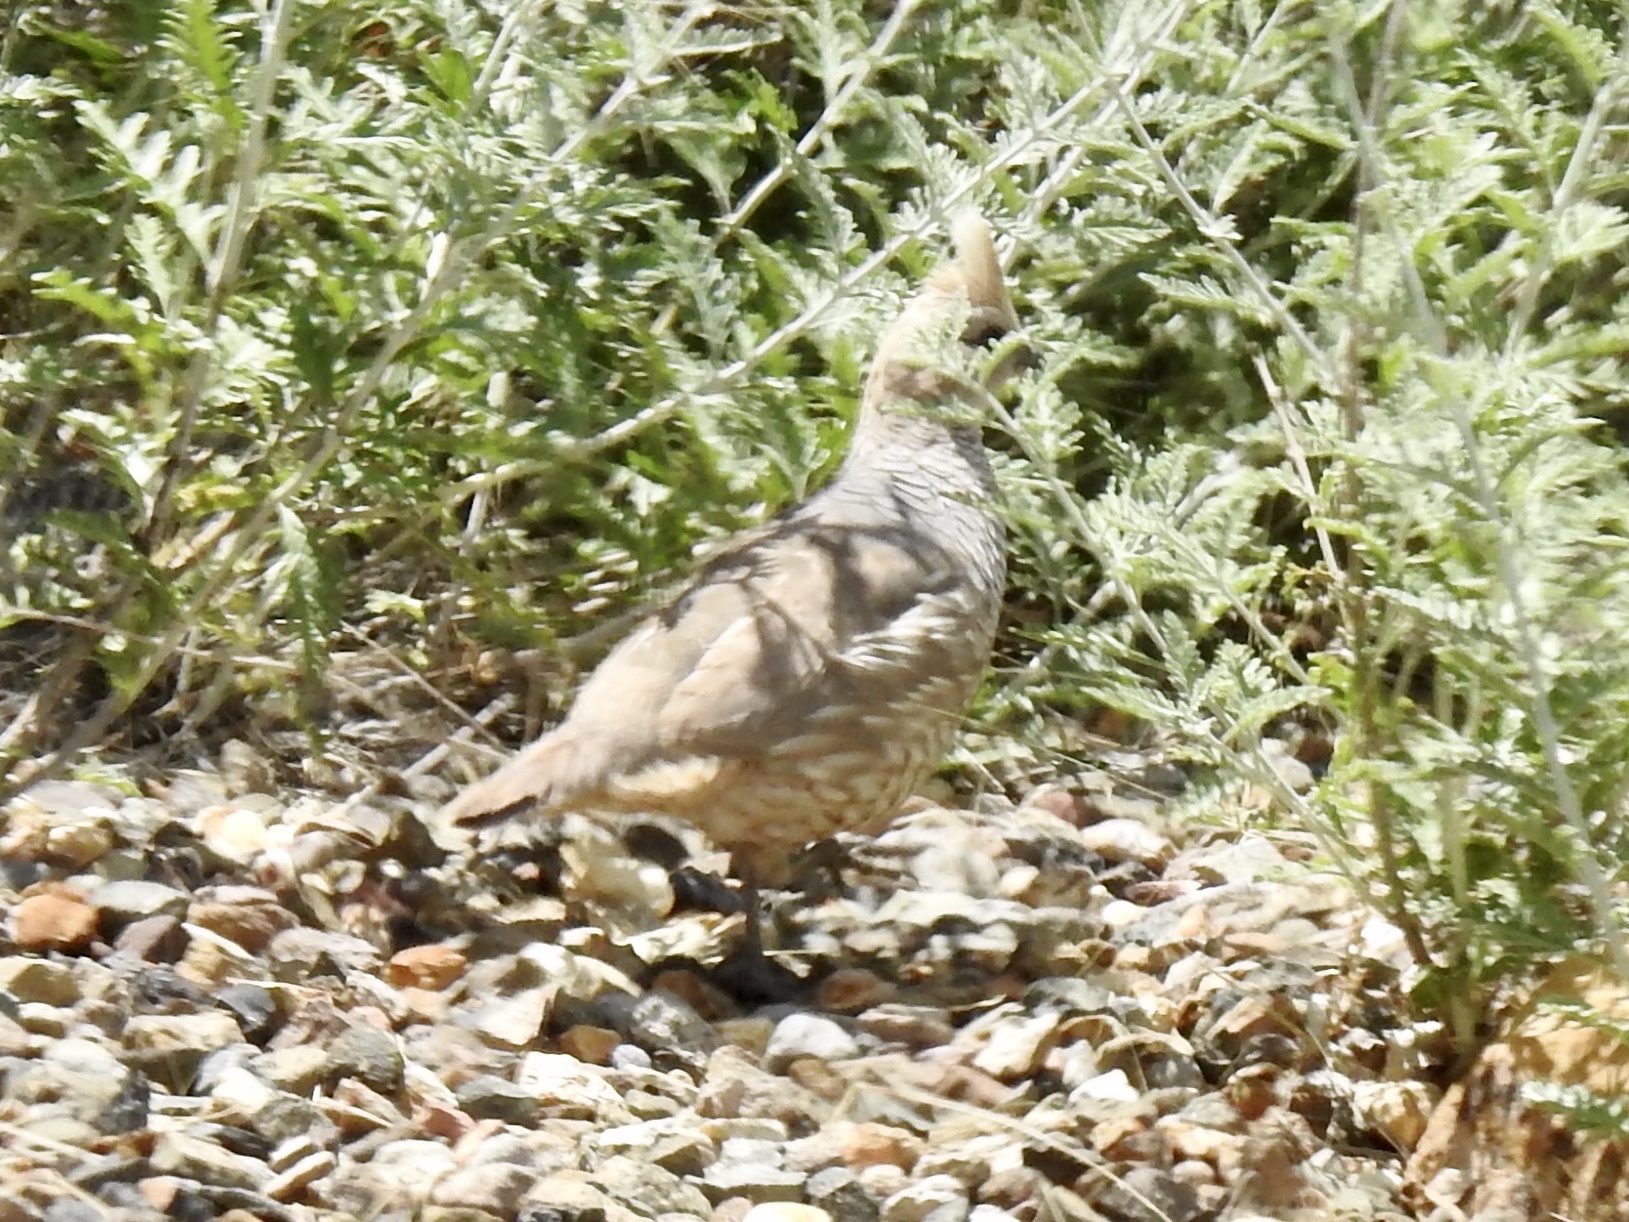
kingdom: Animalia
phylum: Chordata
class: Aves
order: Galliformes
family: Odontophoridae
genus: Callipepla
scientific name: Callipepla squamata
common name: Scaled quail
